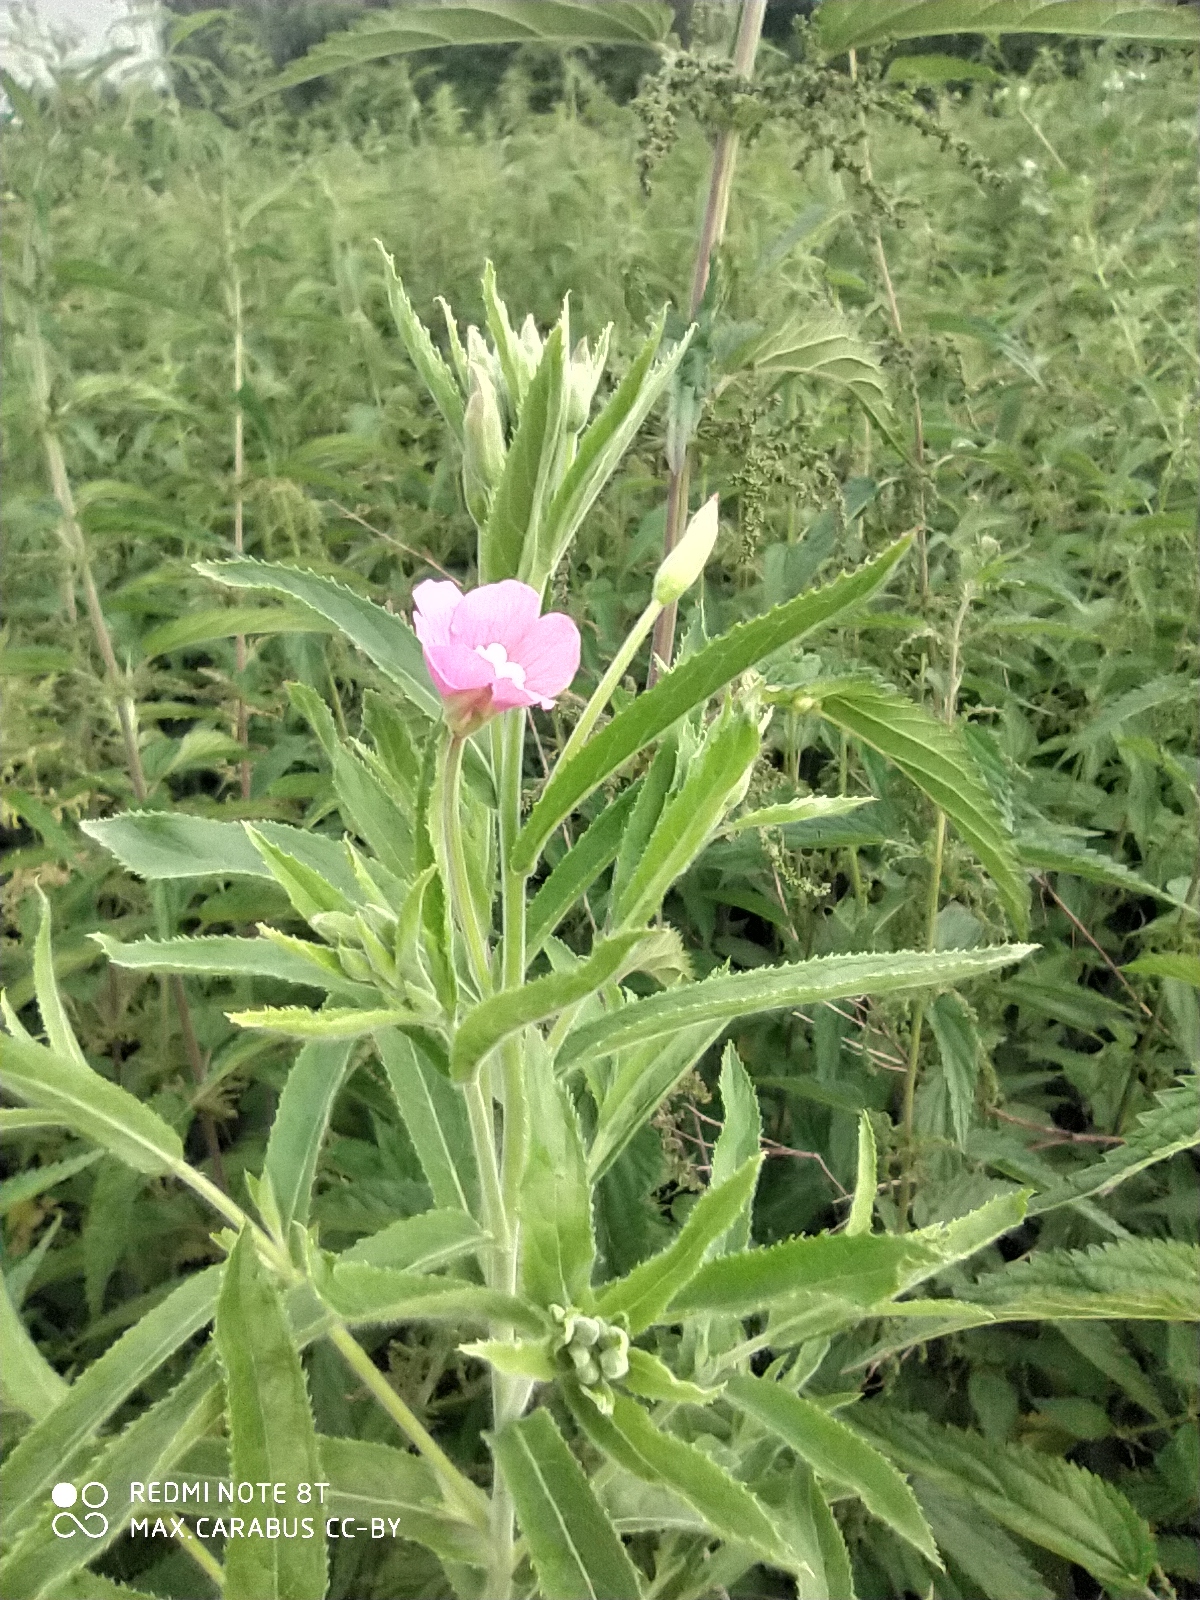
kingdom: Plantae
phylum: Tracheophyta
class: Magnoliopsida
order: Myrtales
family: Onagraceae
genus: Epilobium
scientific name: Epilobium hirsutum
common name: Great willowherb
